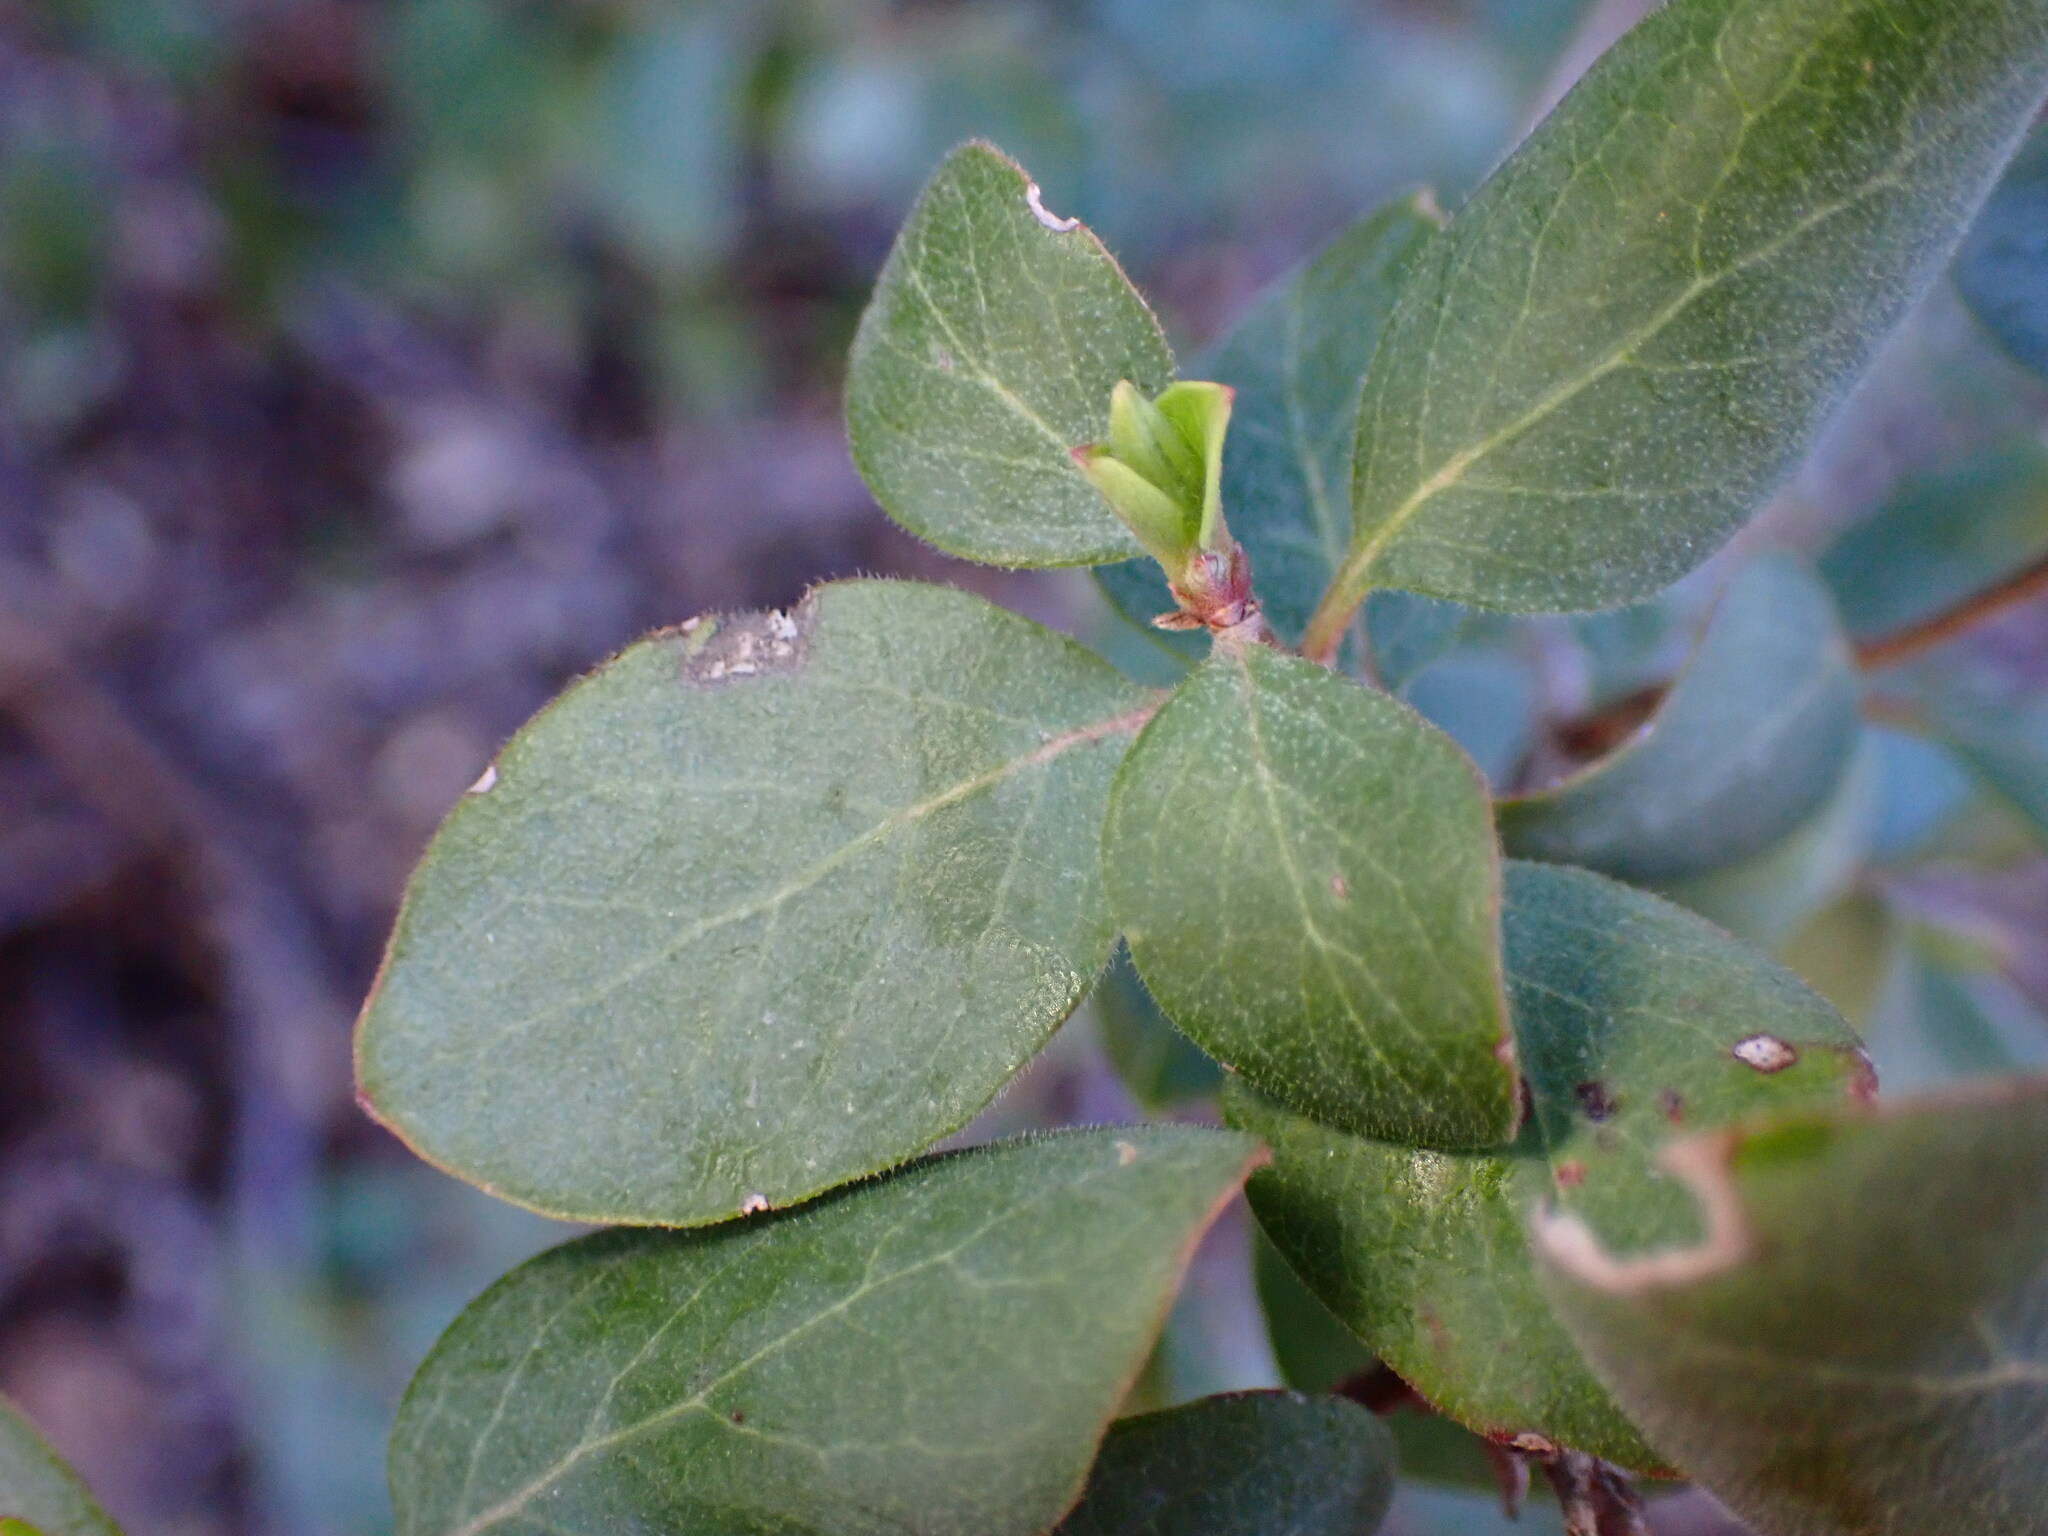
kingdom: Plantae
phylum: Tracheophyta
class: Magnoliopsida
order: Dipsacales
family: Caprifoliaceae
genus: Lonicera
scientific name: Lonicera subspicata
